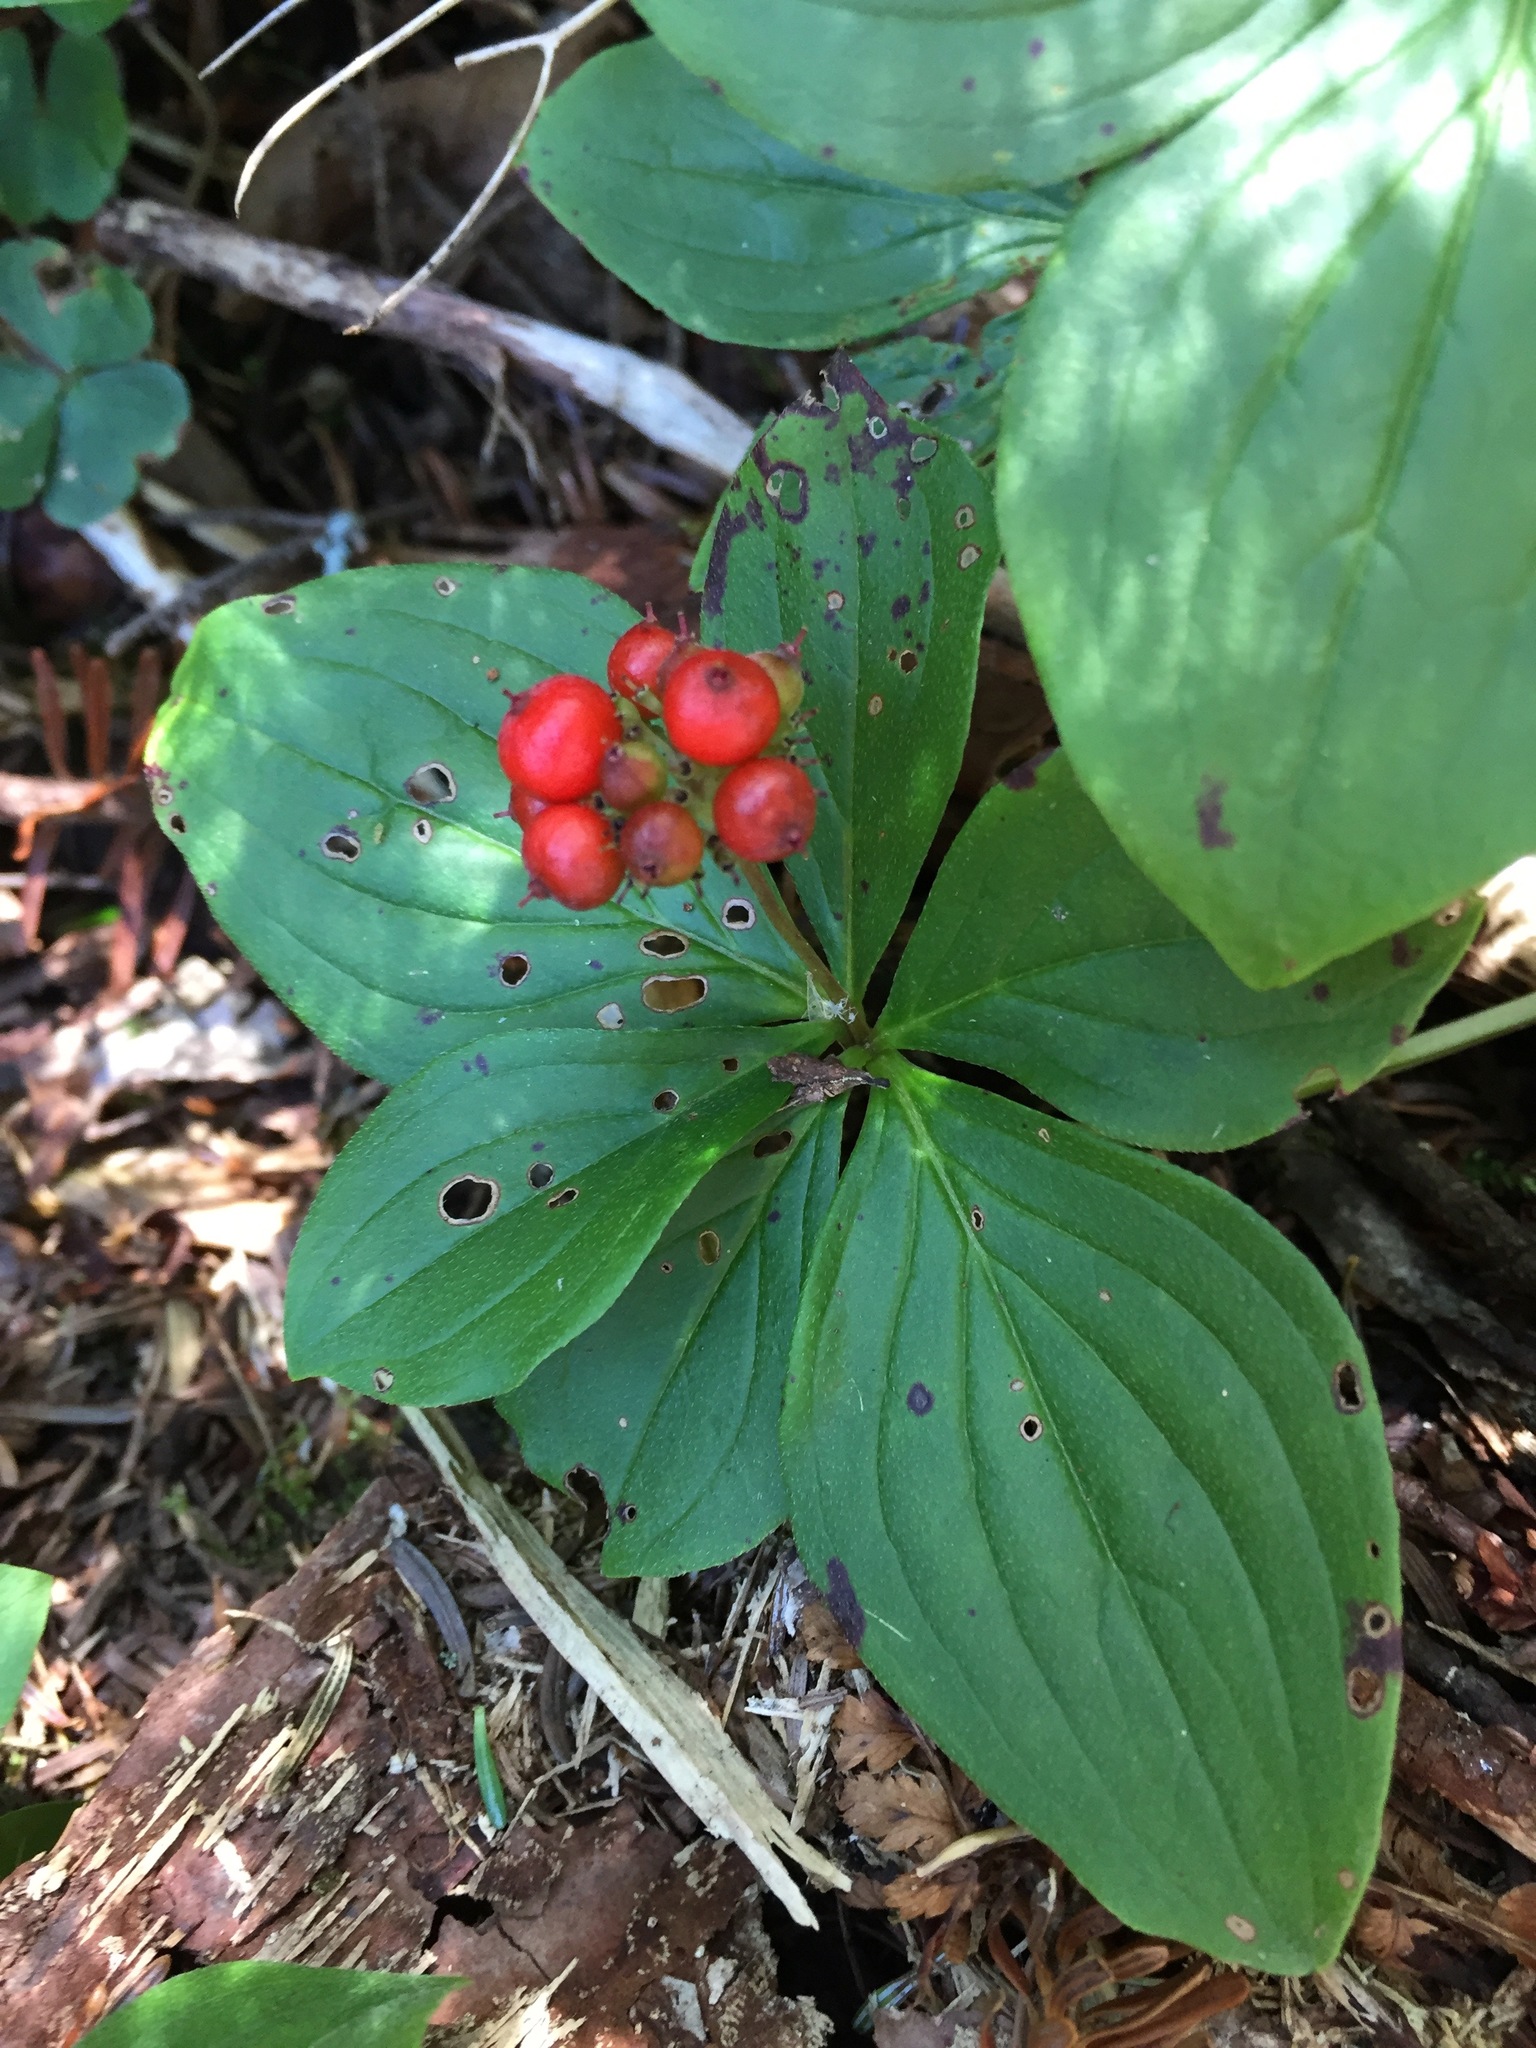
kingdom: Plantae
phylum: Tracheophyta
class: Magnoliopsida
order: Cornales
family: Cornaceae
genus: Cornus
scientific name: Cornus canadensis
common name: Creeping dogwood
